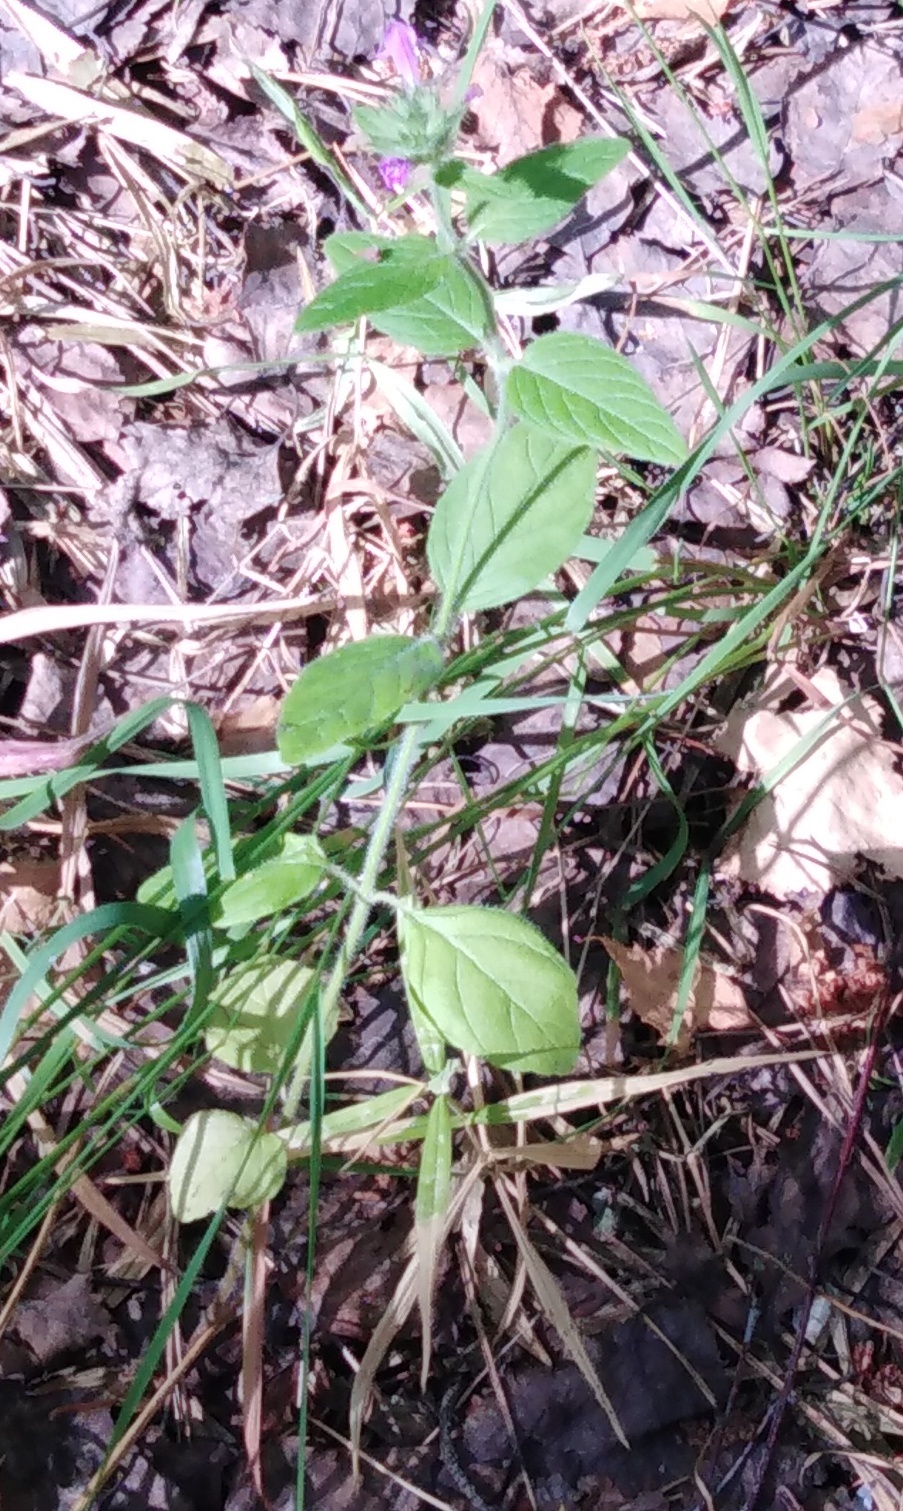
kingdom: Plantae
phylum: Tracheophyta
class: Magnoliopsida
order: Lamiales
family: Lamiaceae
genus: Clinopodium
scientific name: Clinopodium vulgare
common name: Wild basil
